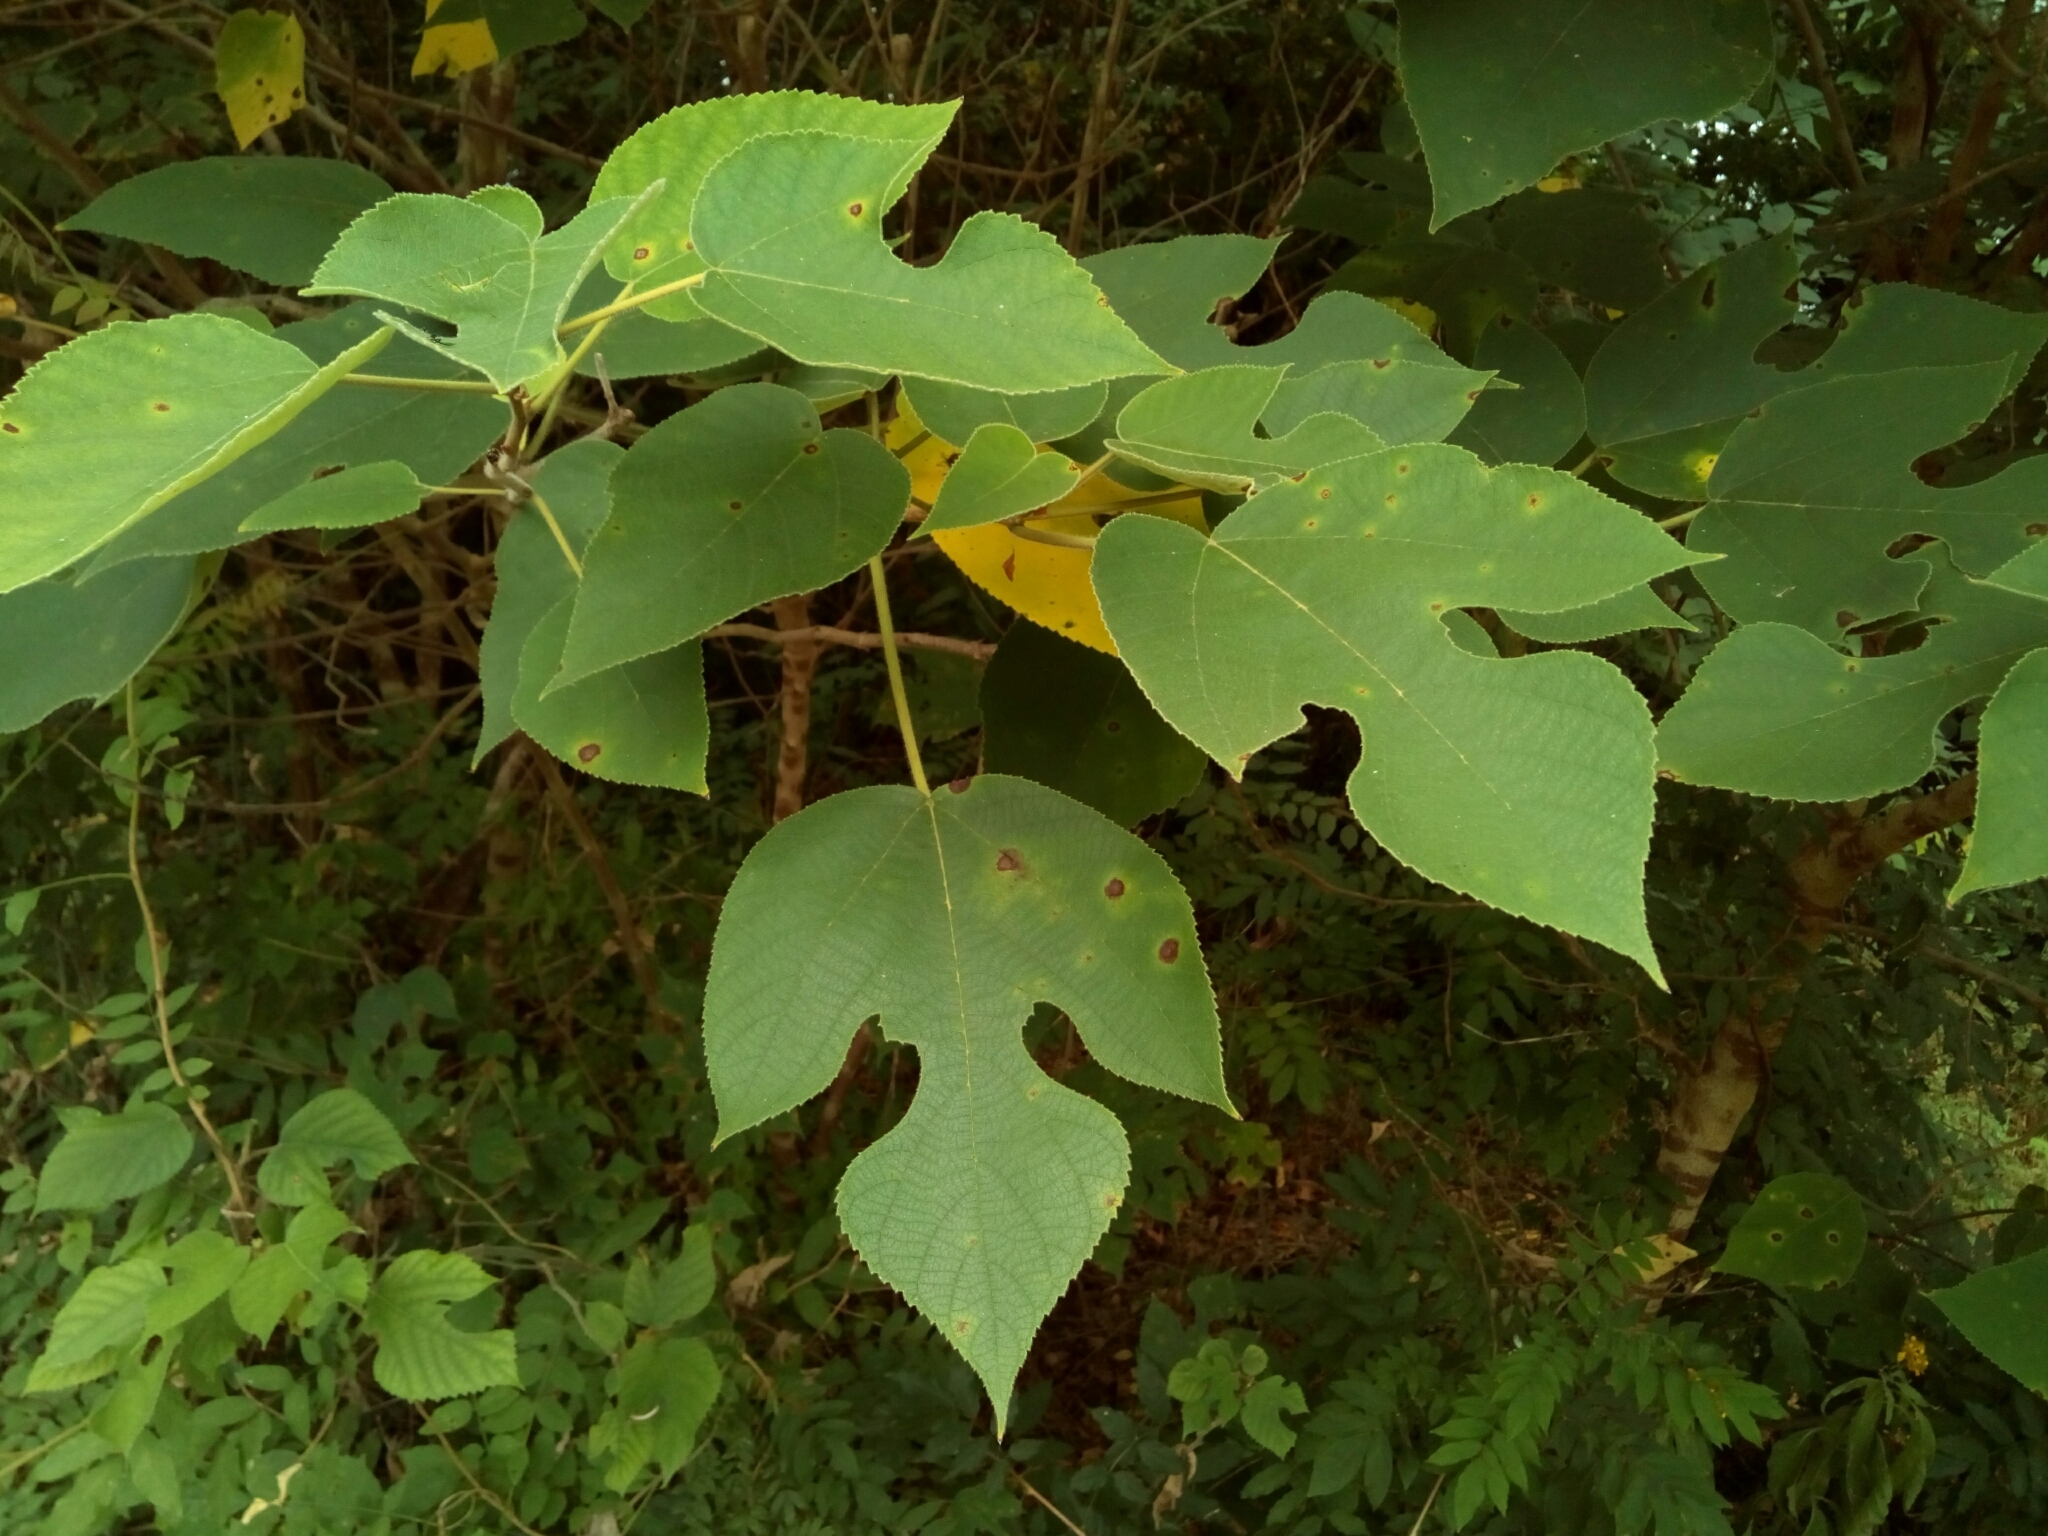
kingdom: Plantae
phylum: Tracheophyta
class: Magnoliopsida
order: Rosales
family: Moraceae
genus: Broussonetia
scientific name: Broussonetia papyrifera
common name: Paper mulberry
